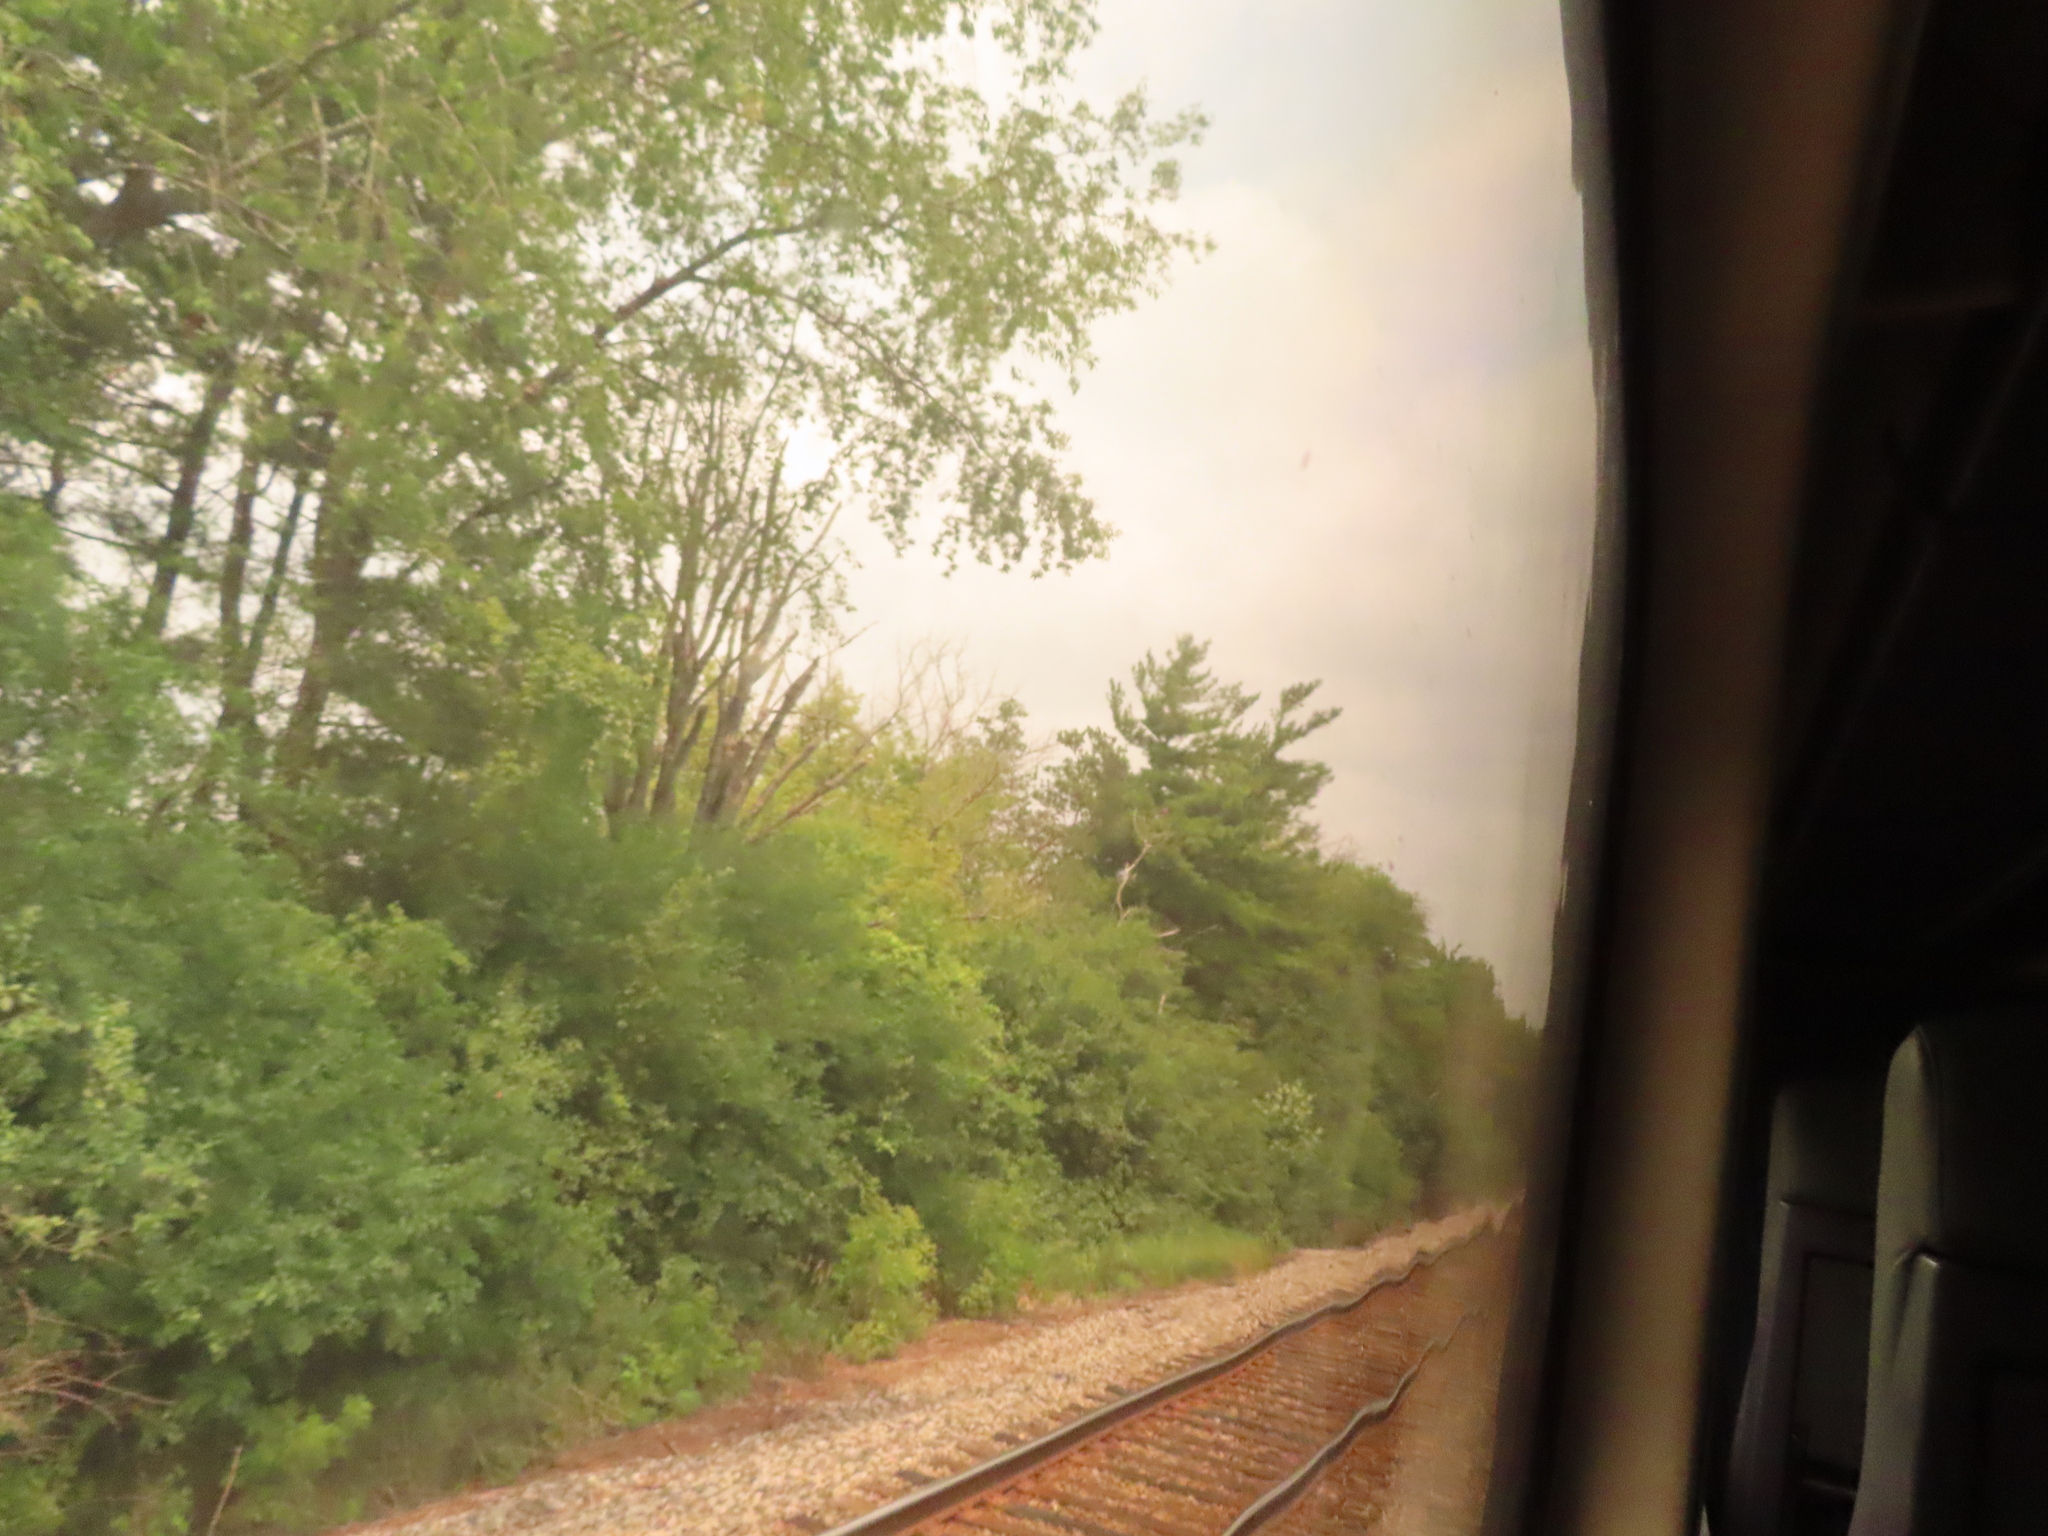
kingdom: Plantae
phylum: Tracheophyta
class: Pinopsida
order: Pinales
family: Pinaceae
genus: Pinus
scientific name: Pinus strobus
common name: Weymouth pine
